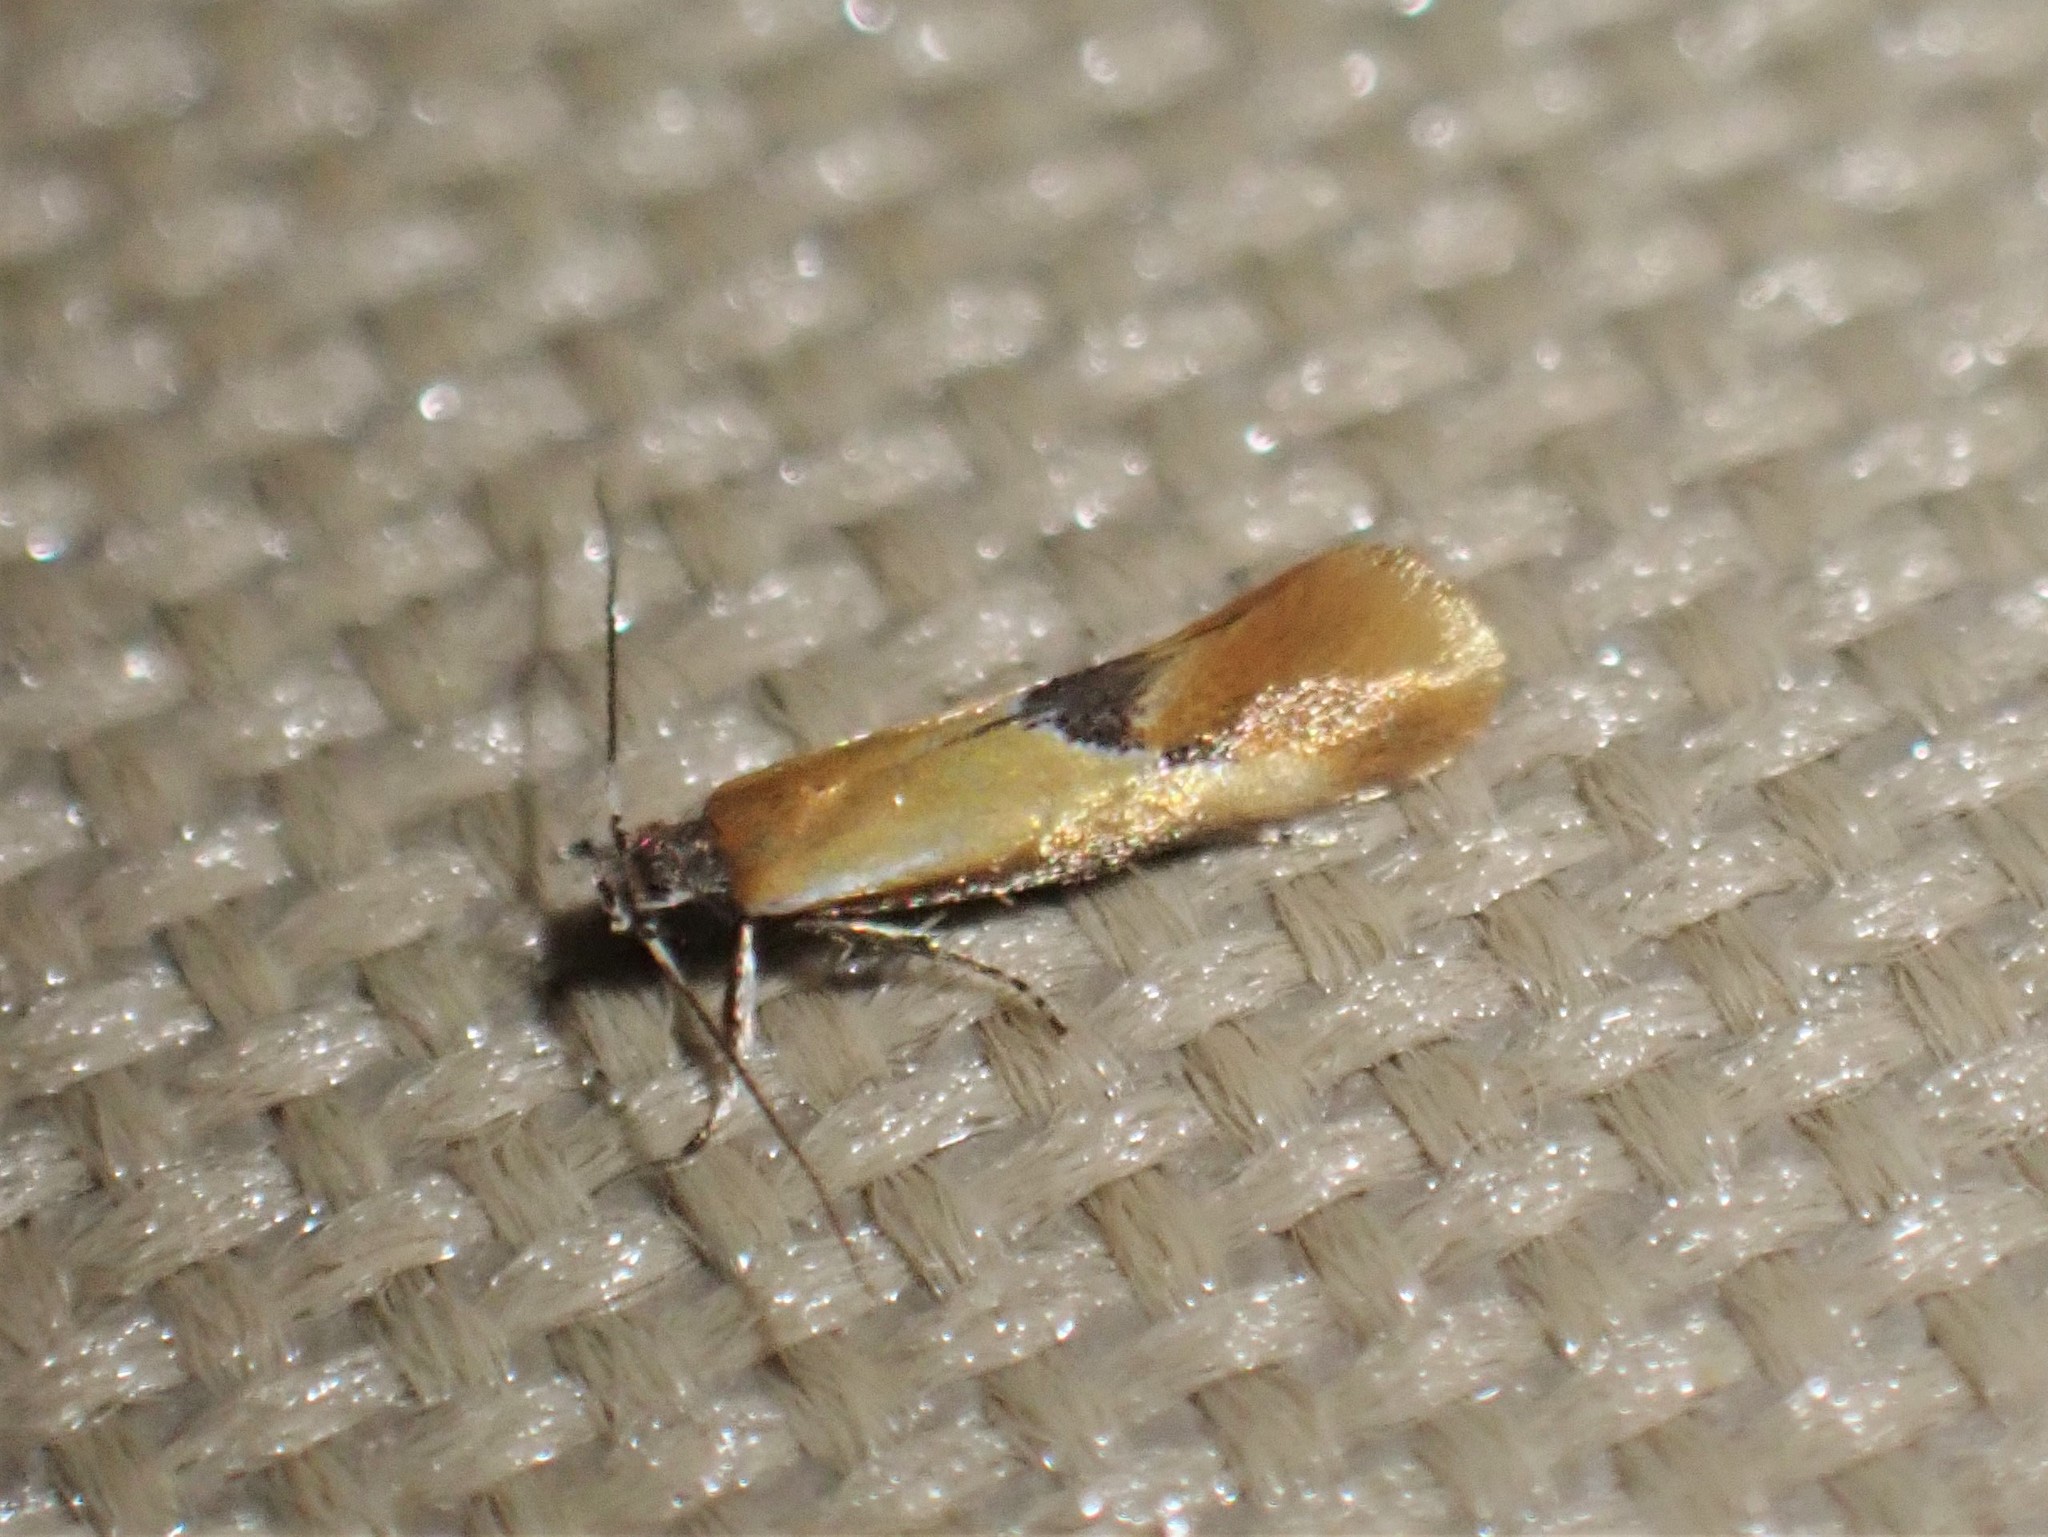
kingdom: Animalia
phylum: Arthropoda
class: Insecta
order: Lepidoptera
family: Oecophoridae
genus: Batia
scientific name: Batia lunaris
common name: Moth
